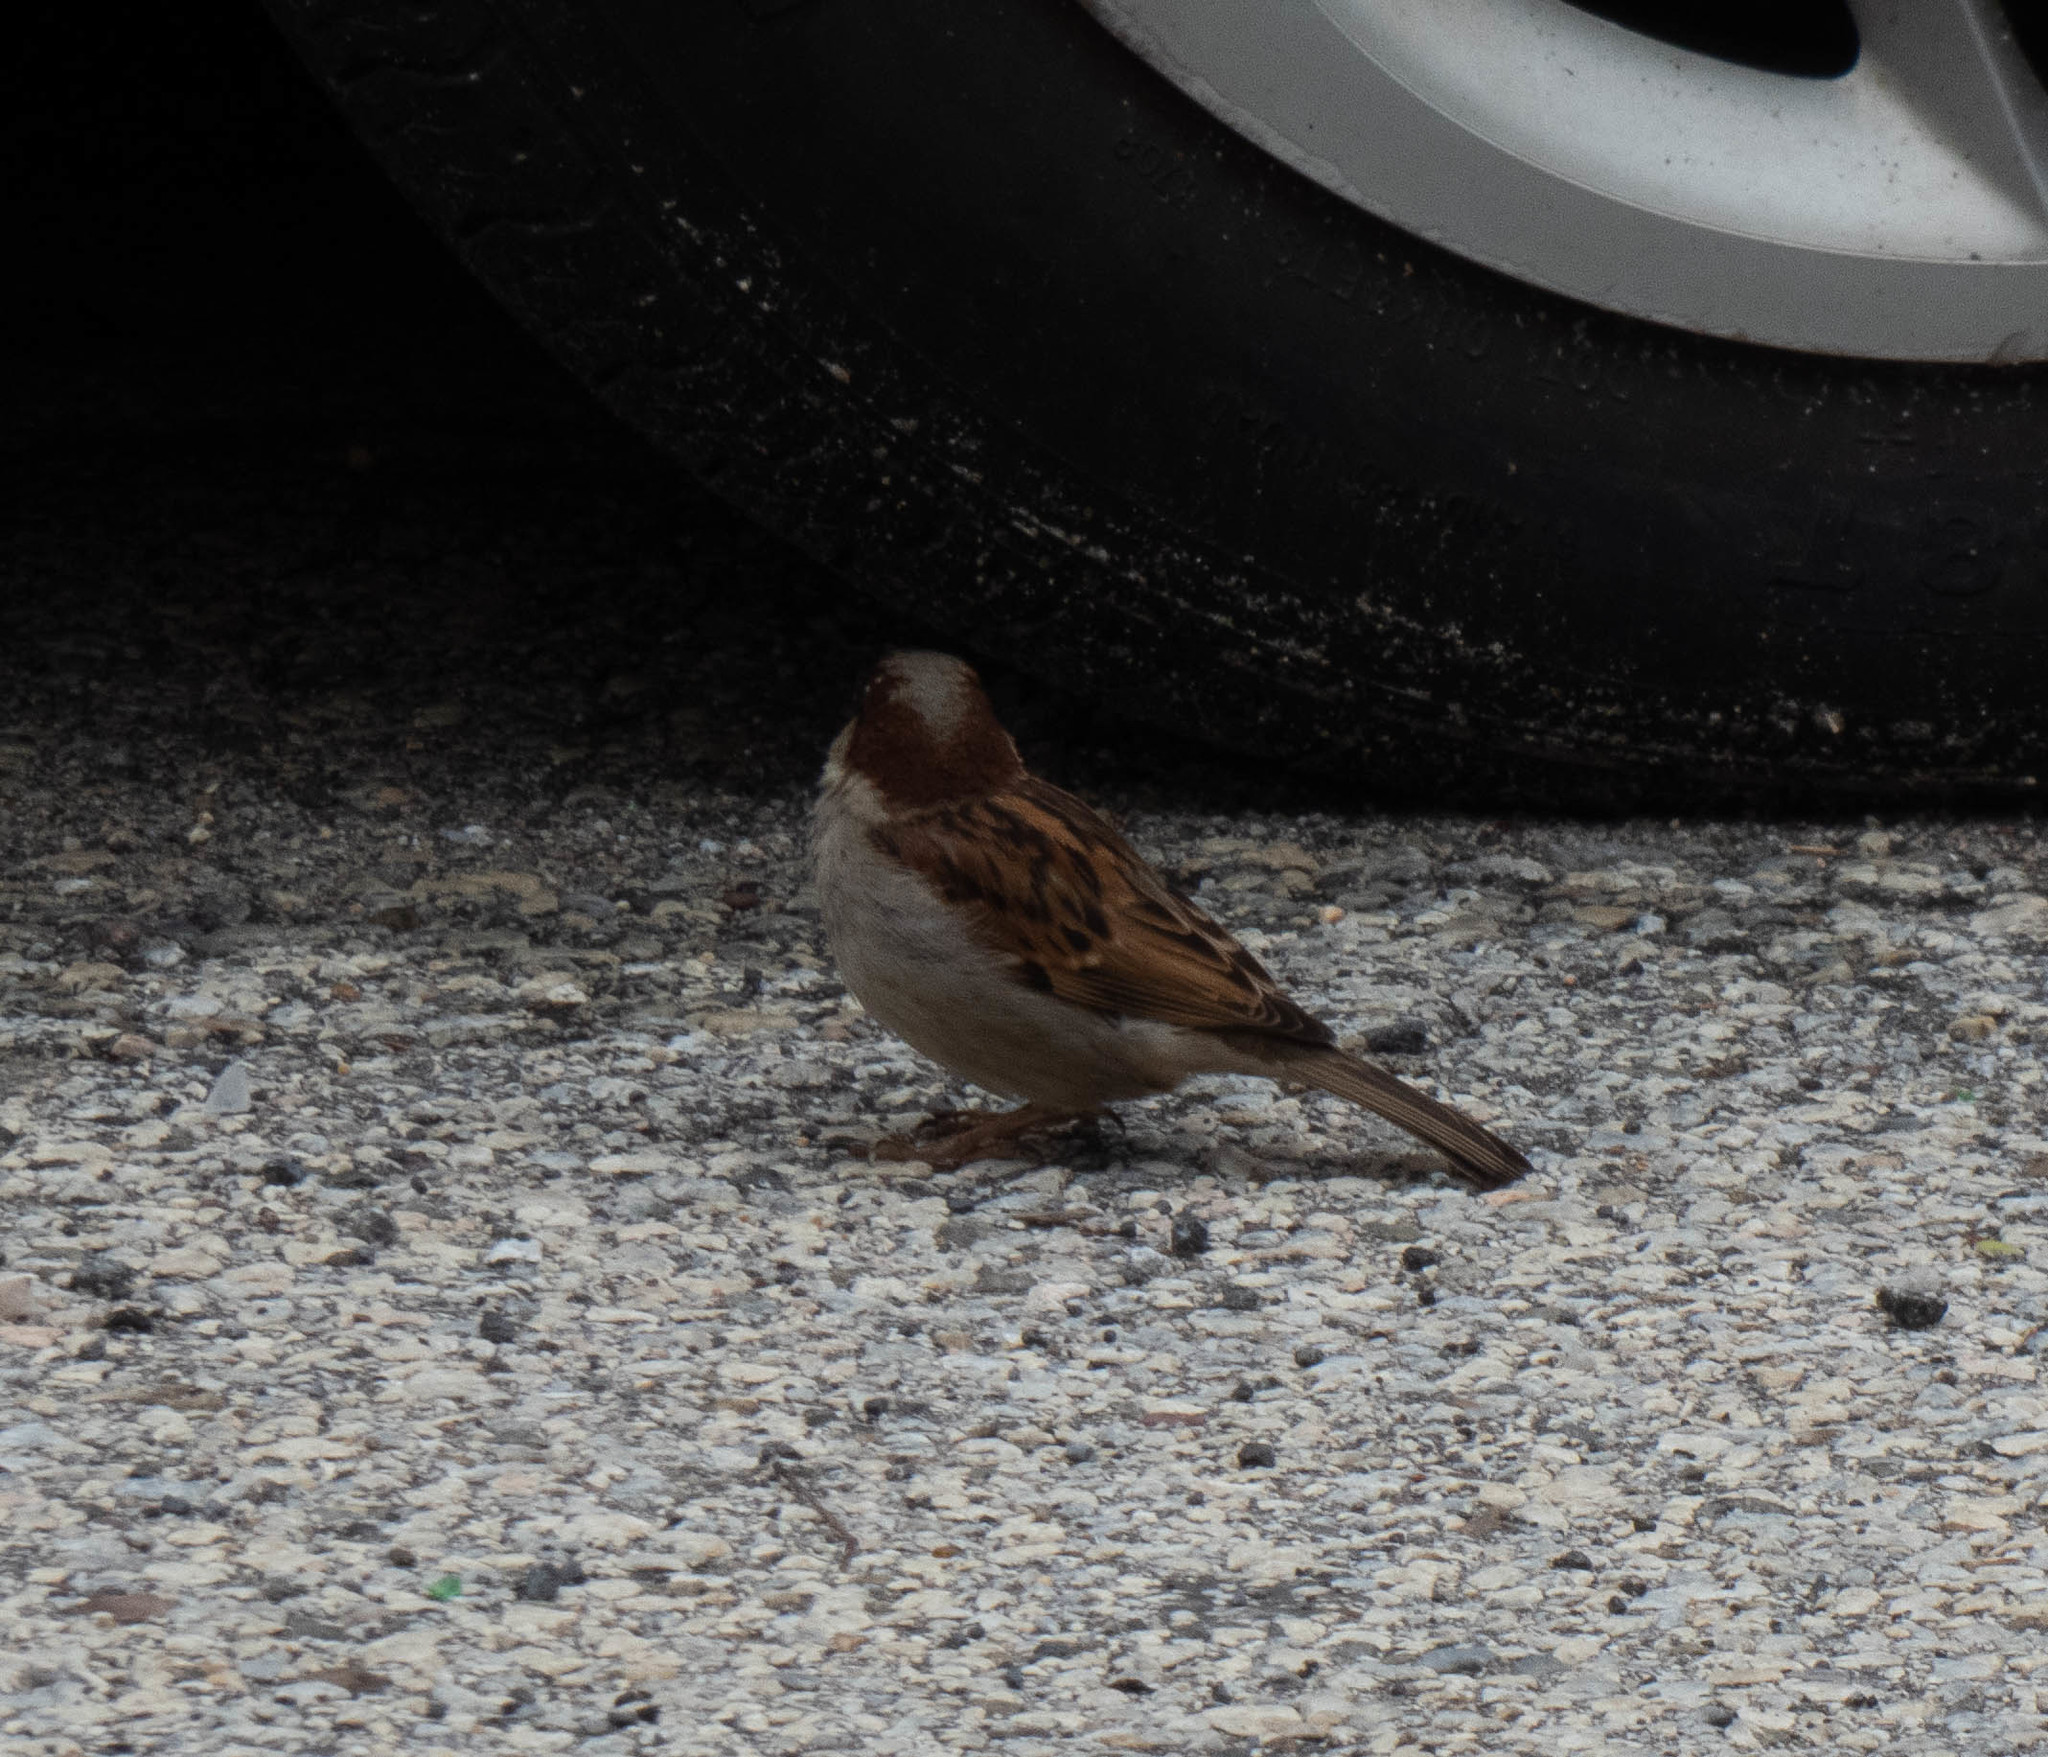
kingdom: Animalia
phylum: Chordata
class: Aves
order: Passeriformes
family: Passeridae
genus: Passer
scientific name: Passer domesticus
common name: House sparrow
